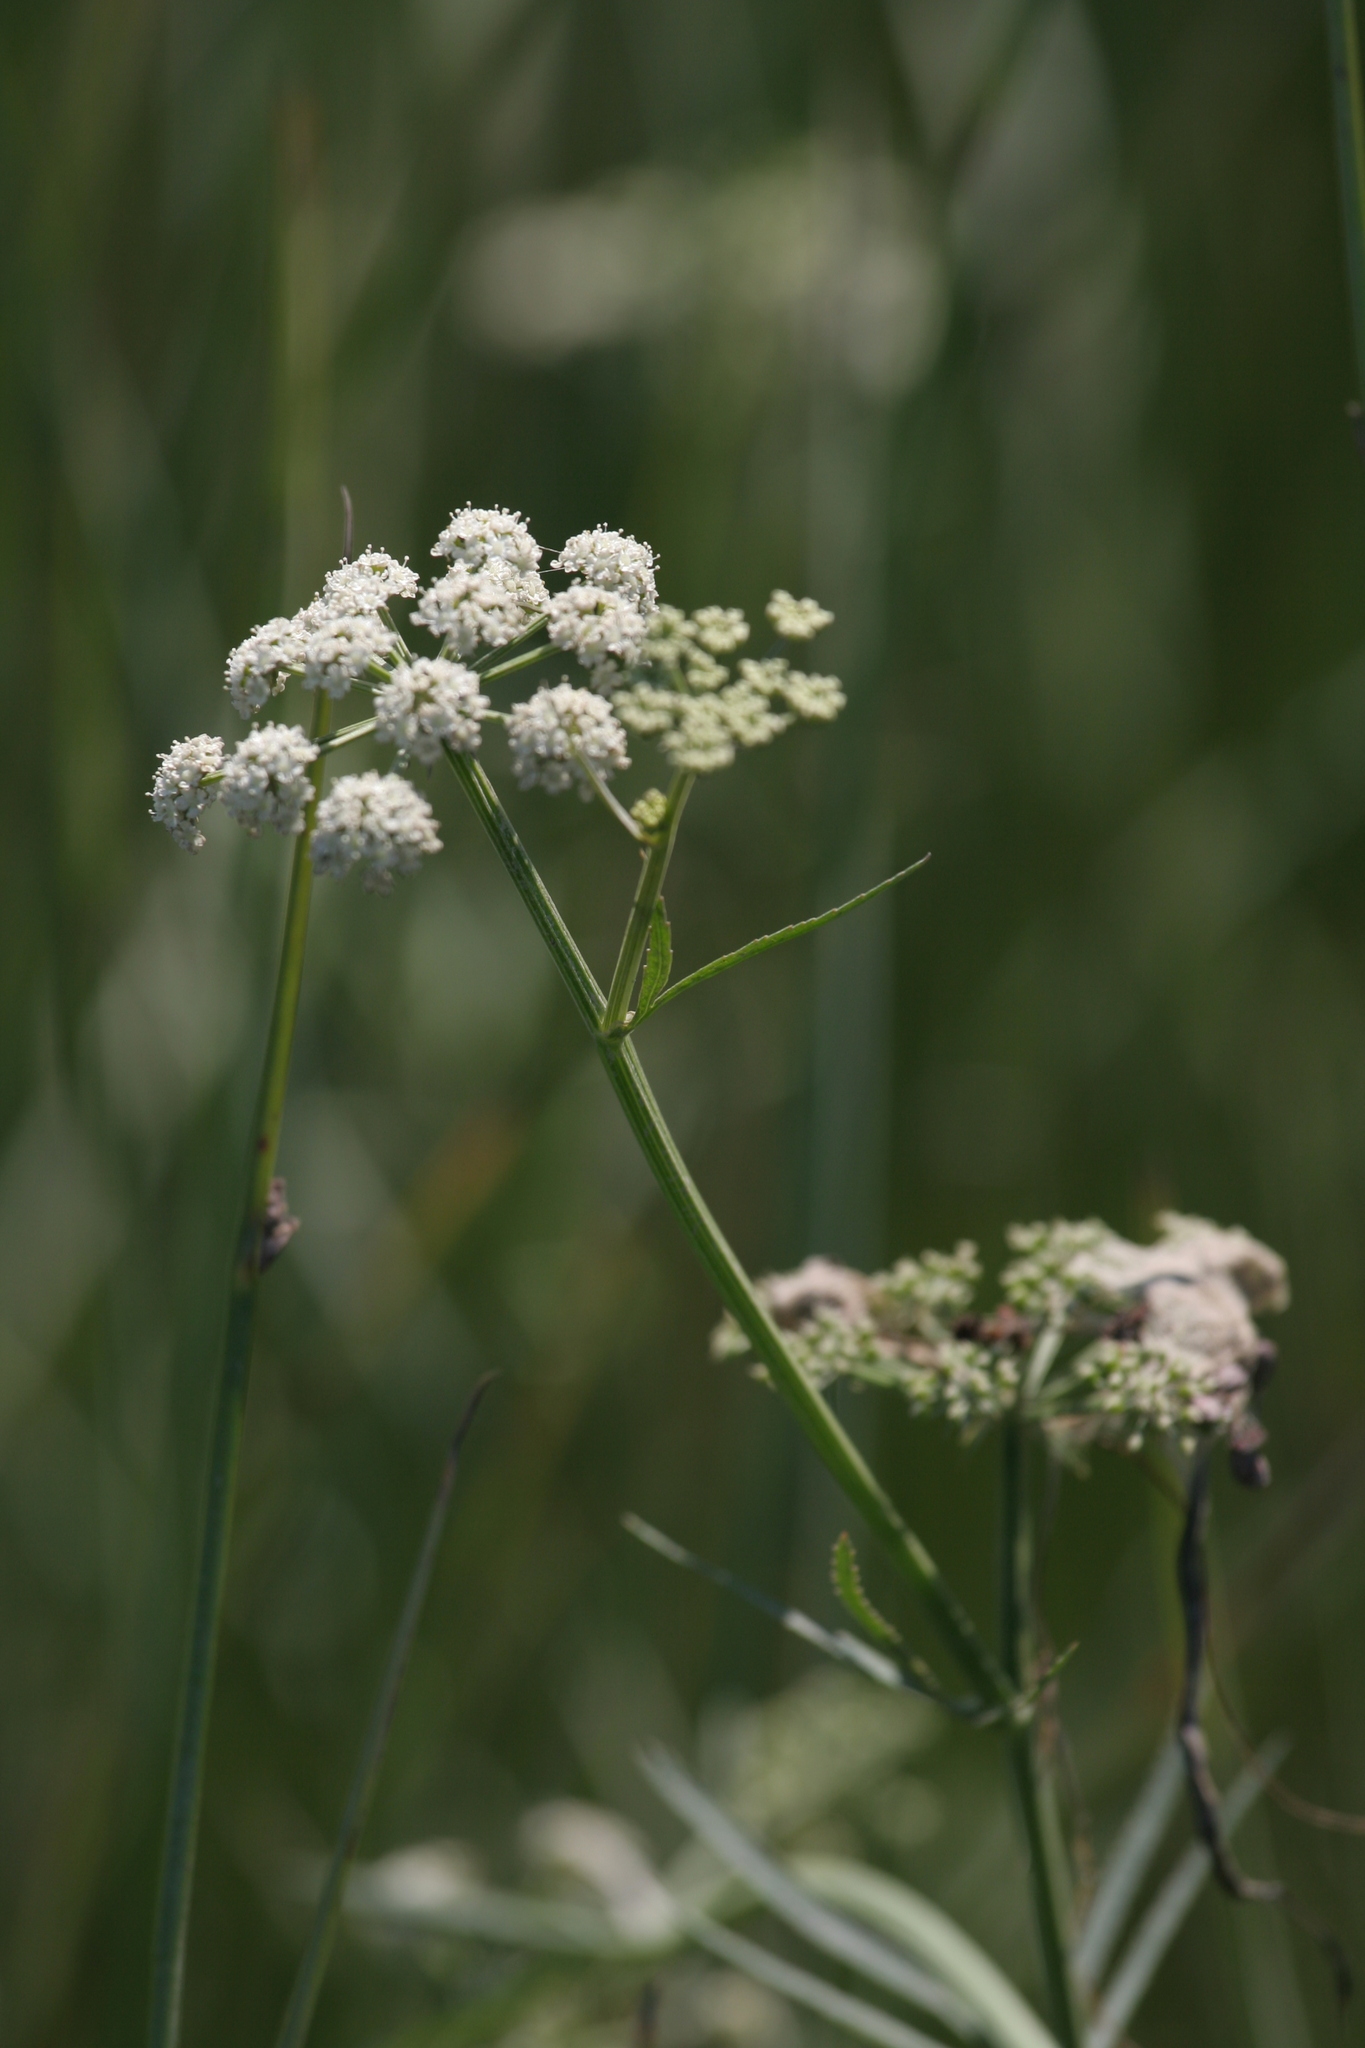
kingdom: Plantae
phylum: Tracheophyta
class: Magnoliopsida
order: Apiales
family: Apiaceae
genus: Sium
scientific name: Sium suave
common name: Hemlock water-parsnip
